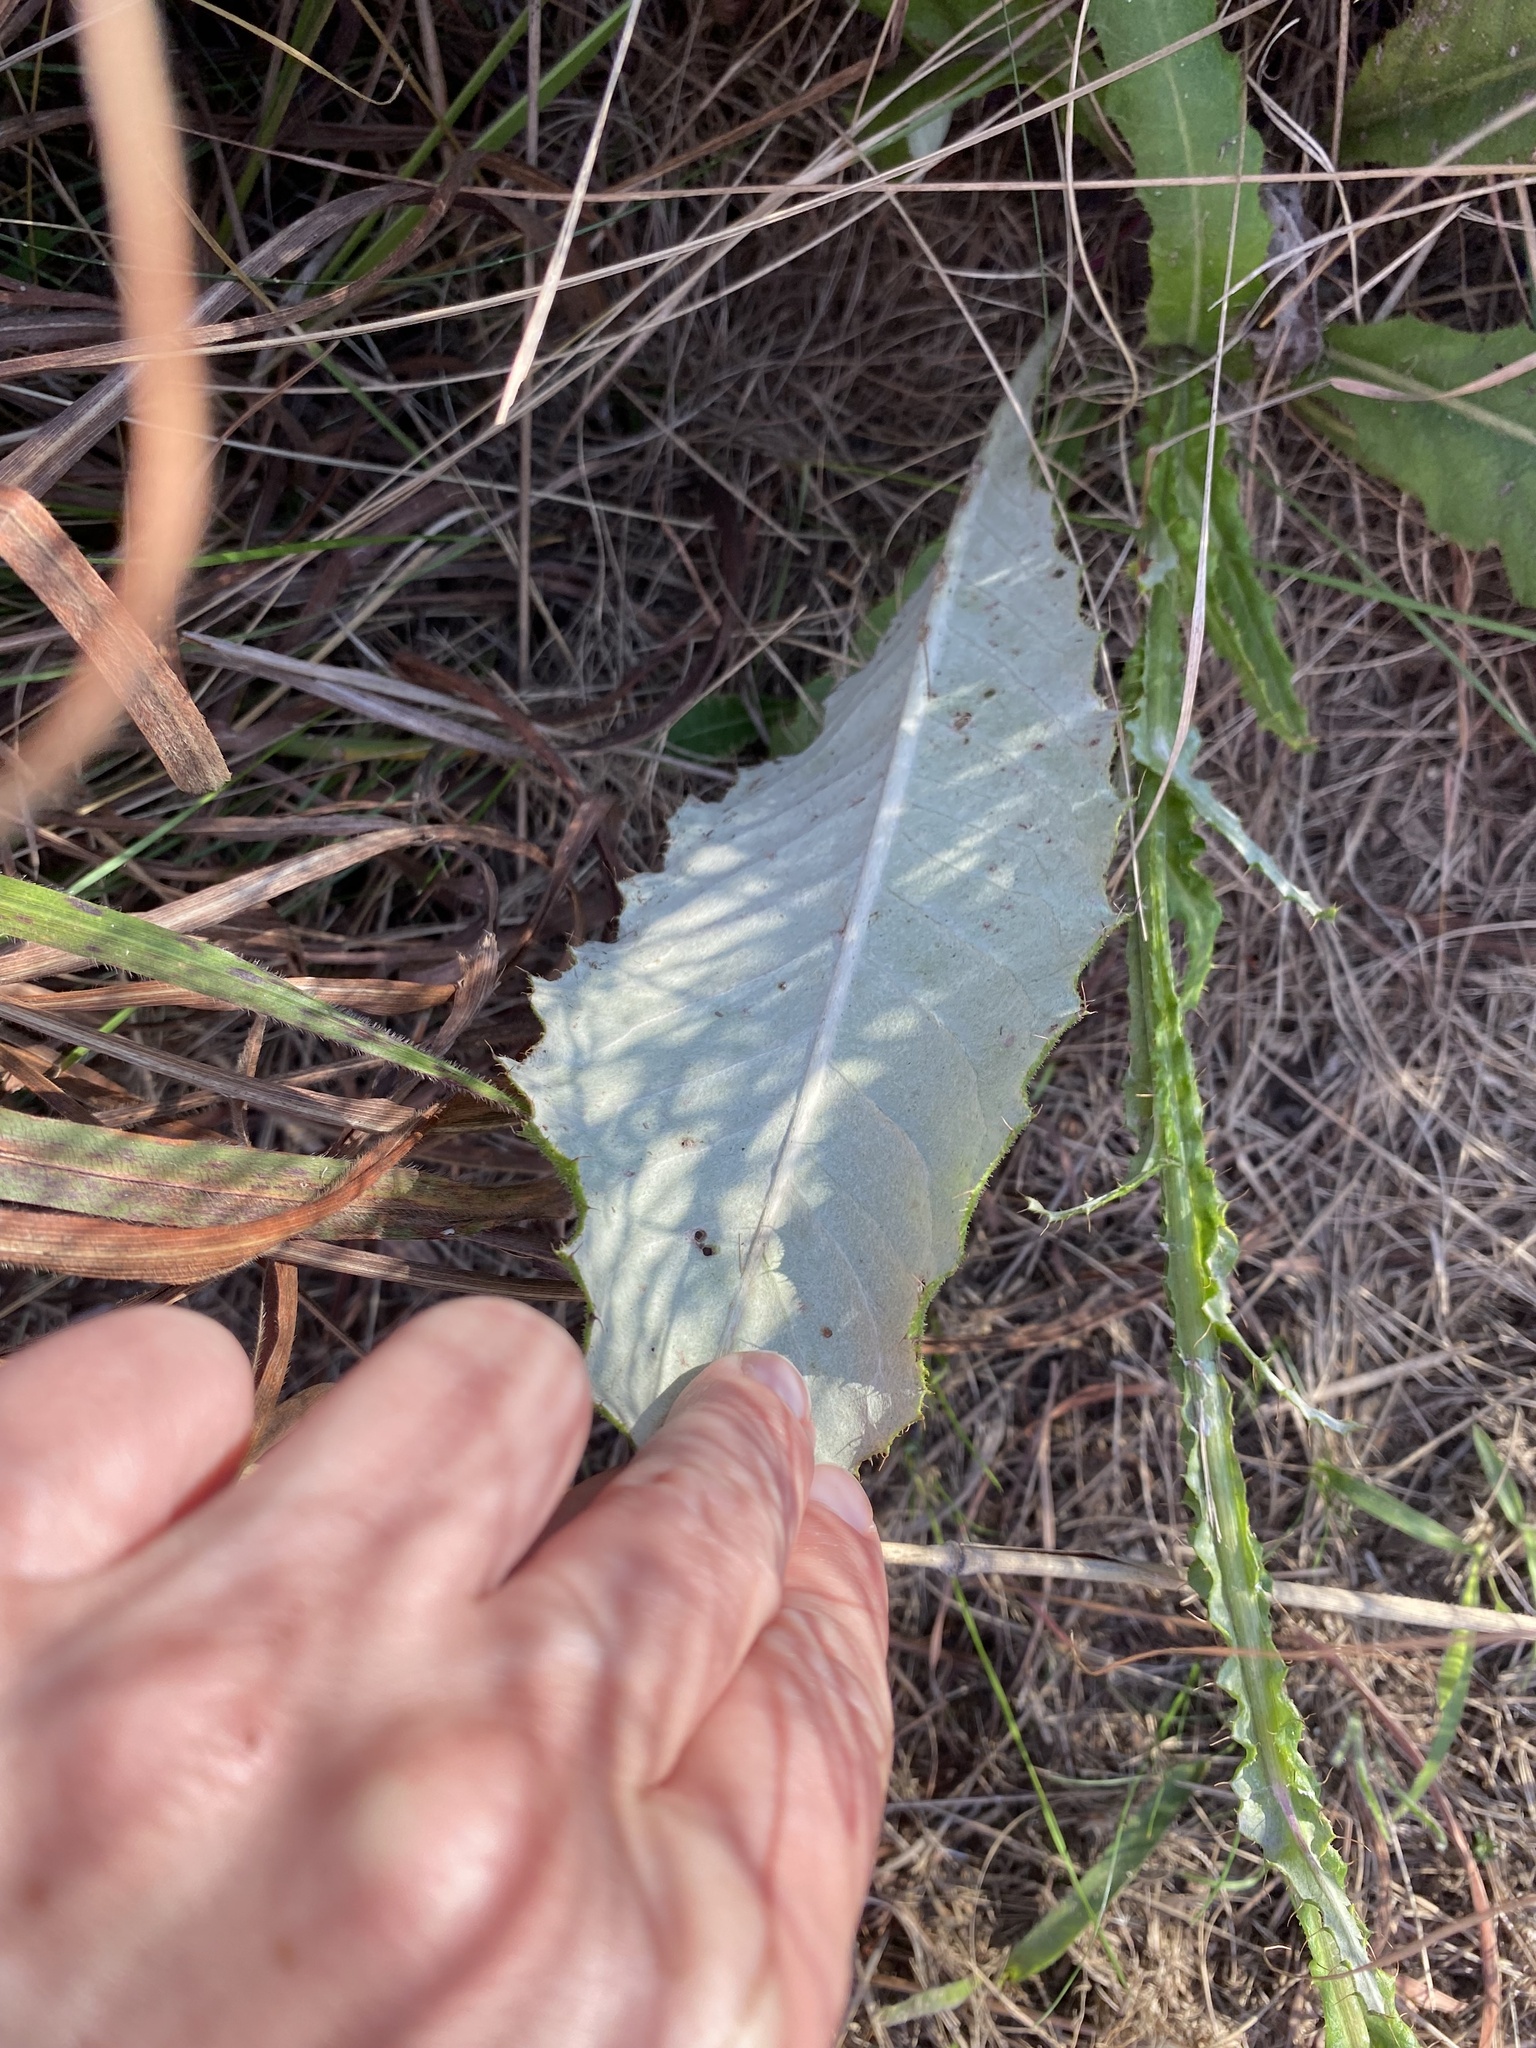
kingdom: Plantae
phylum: Tracheophyta
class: Magnoliopsida
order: Asterales
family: Asteraceae
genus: Berkheya
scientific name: Berkheya setifera
